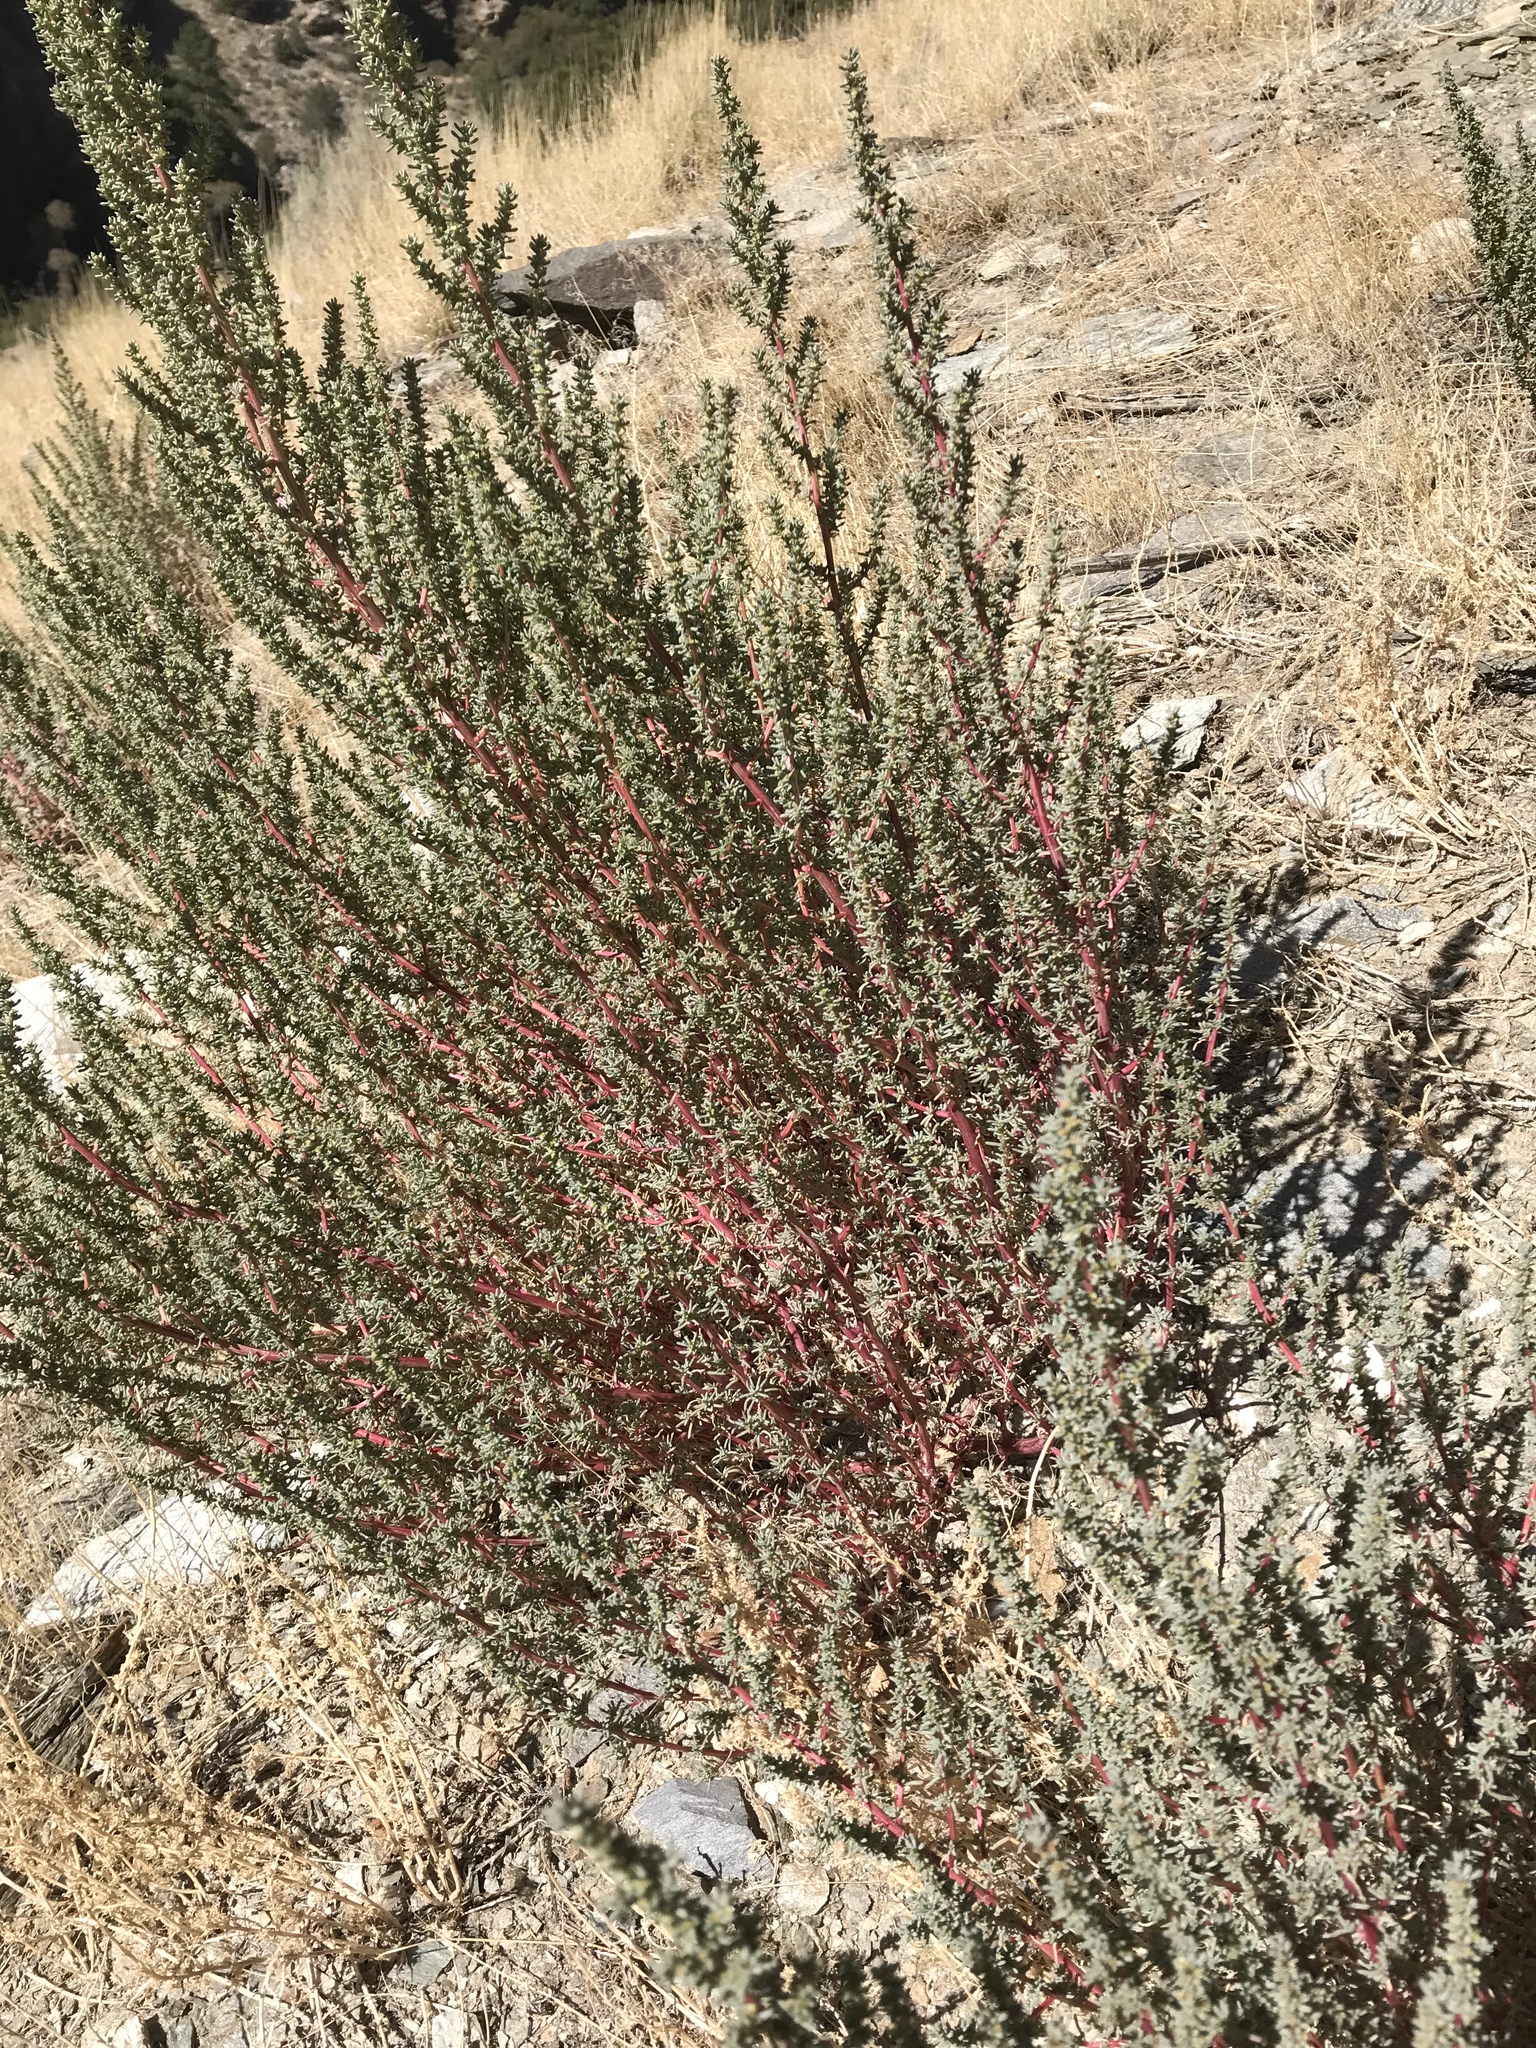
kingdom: Plantae
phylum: Tracheophyta
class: Magnoliopsida
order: Caryophyllales
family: Amaranthaceae
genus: Halogeton
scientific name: Halogeton glomeratus
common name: Saltlover
